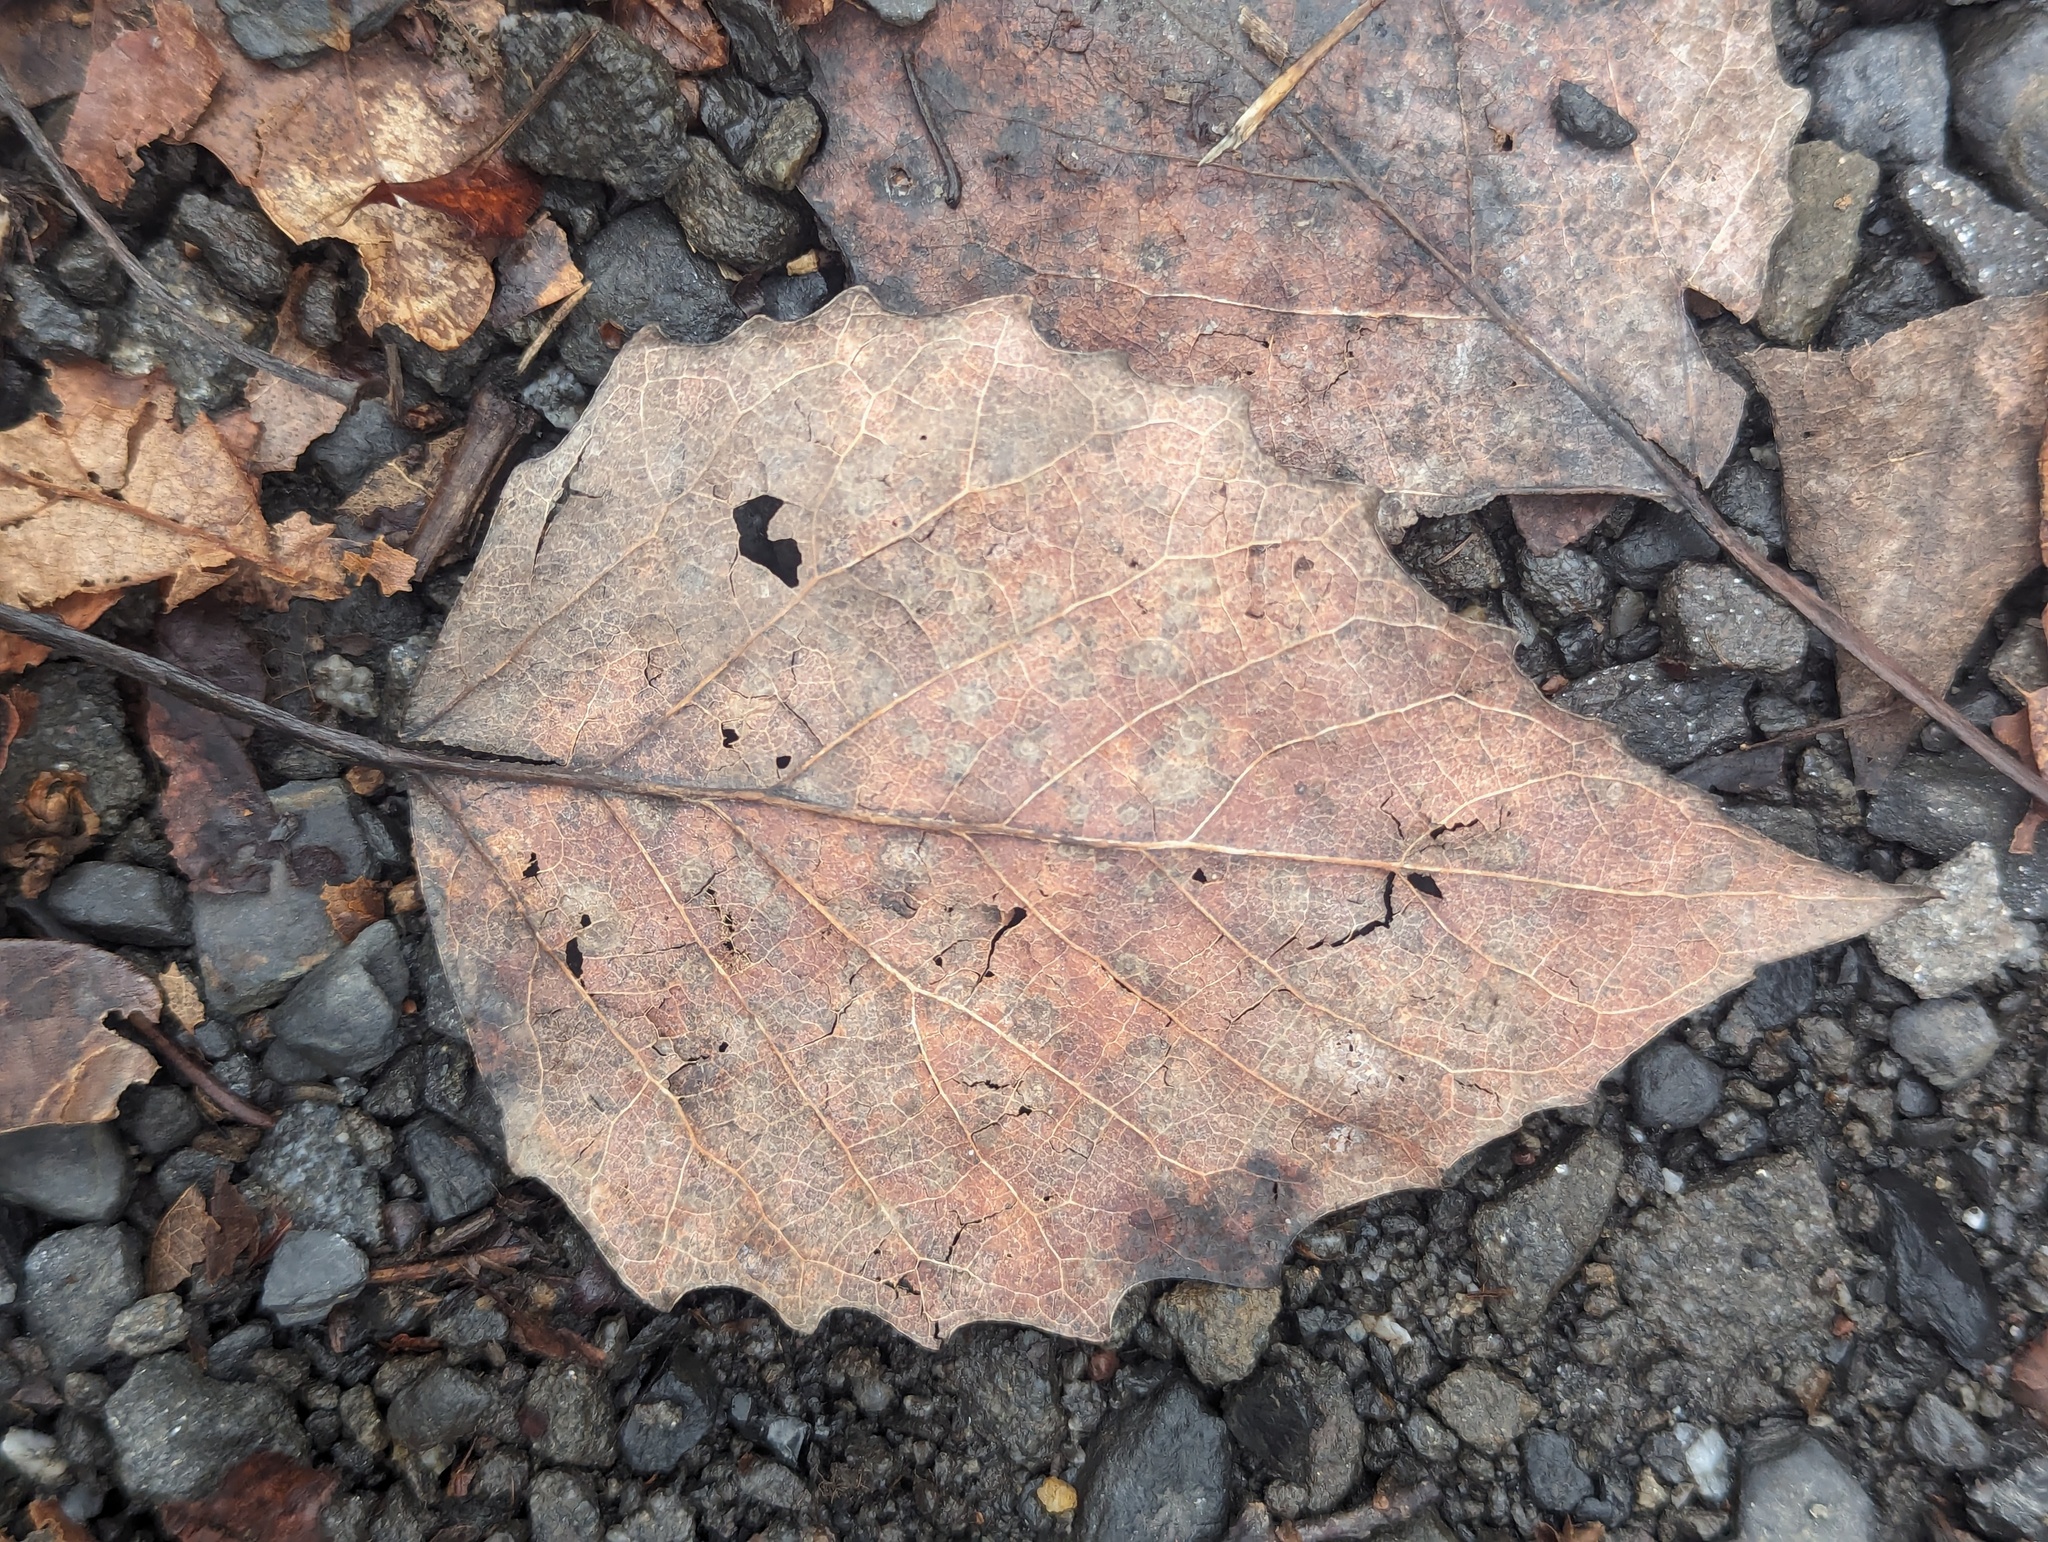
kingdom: Plantae
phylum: Tracheophyta
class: Magnoliopsida
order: Malpighiales
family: Salicaceae
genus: Populus
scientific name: Populus grandidentata
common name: Bigtooth aspen
